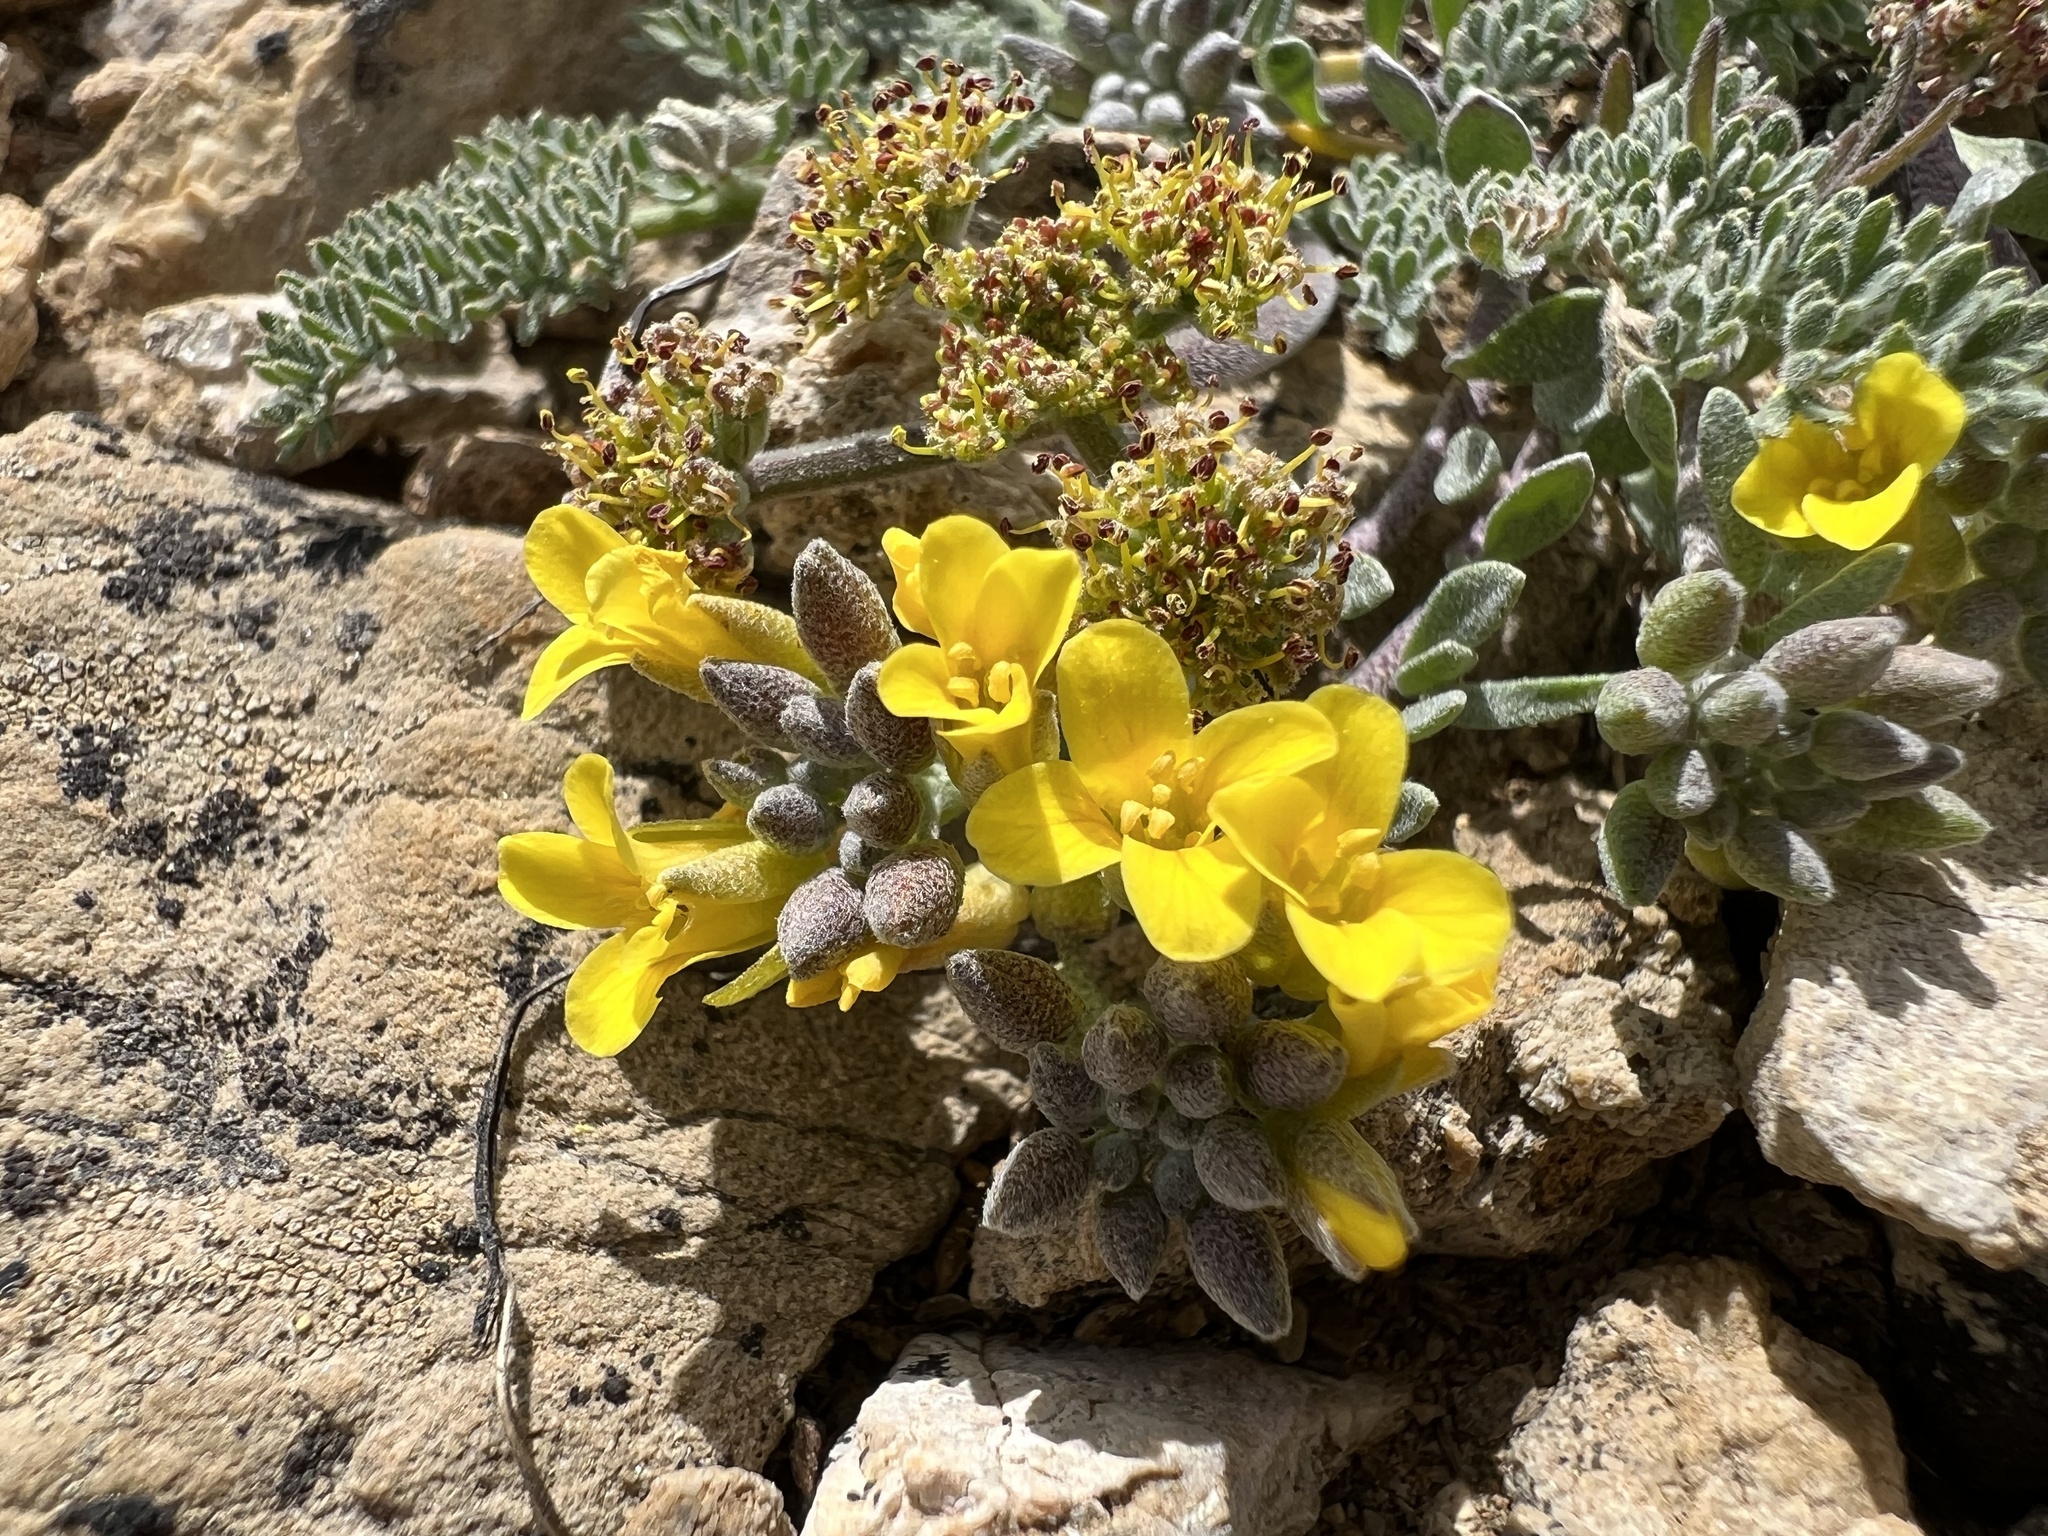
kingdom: Plantae
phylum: Tracheophyta
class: Magnoliopsida
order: Brassicales
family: Brassicaceae
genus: Physaria
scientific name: Physaria kingii
